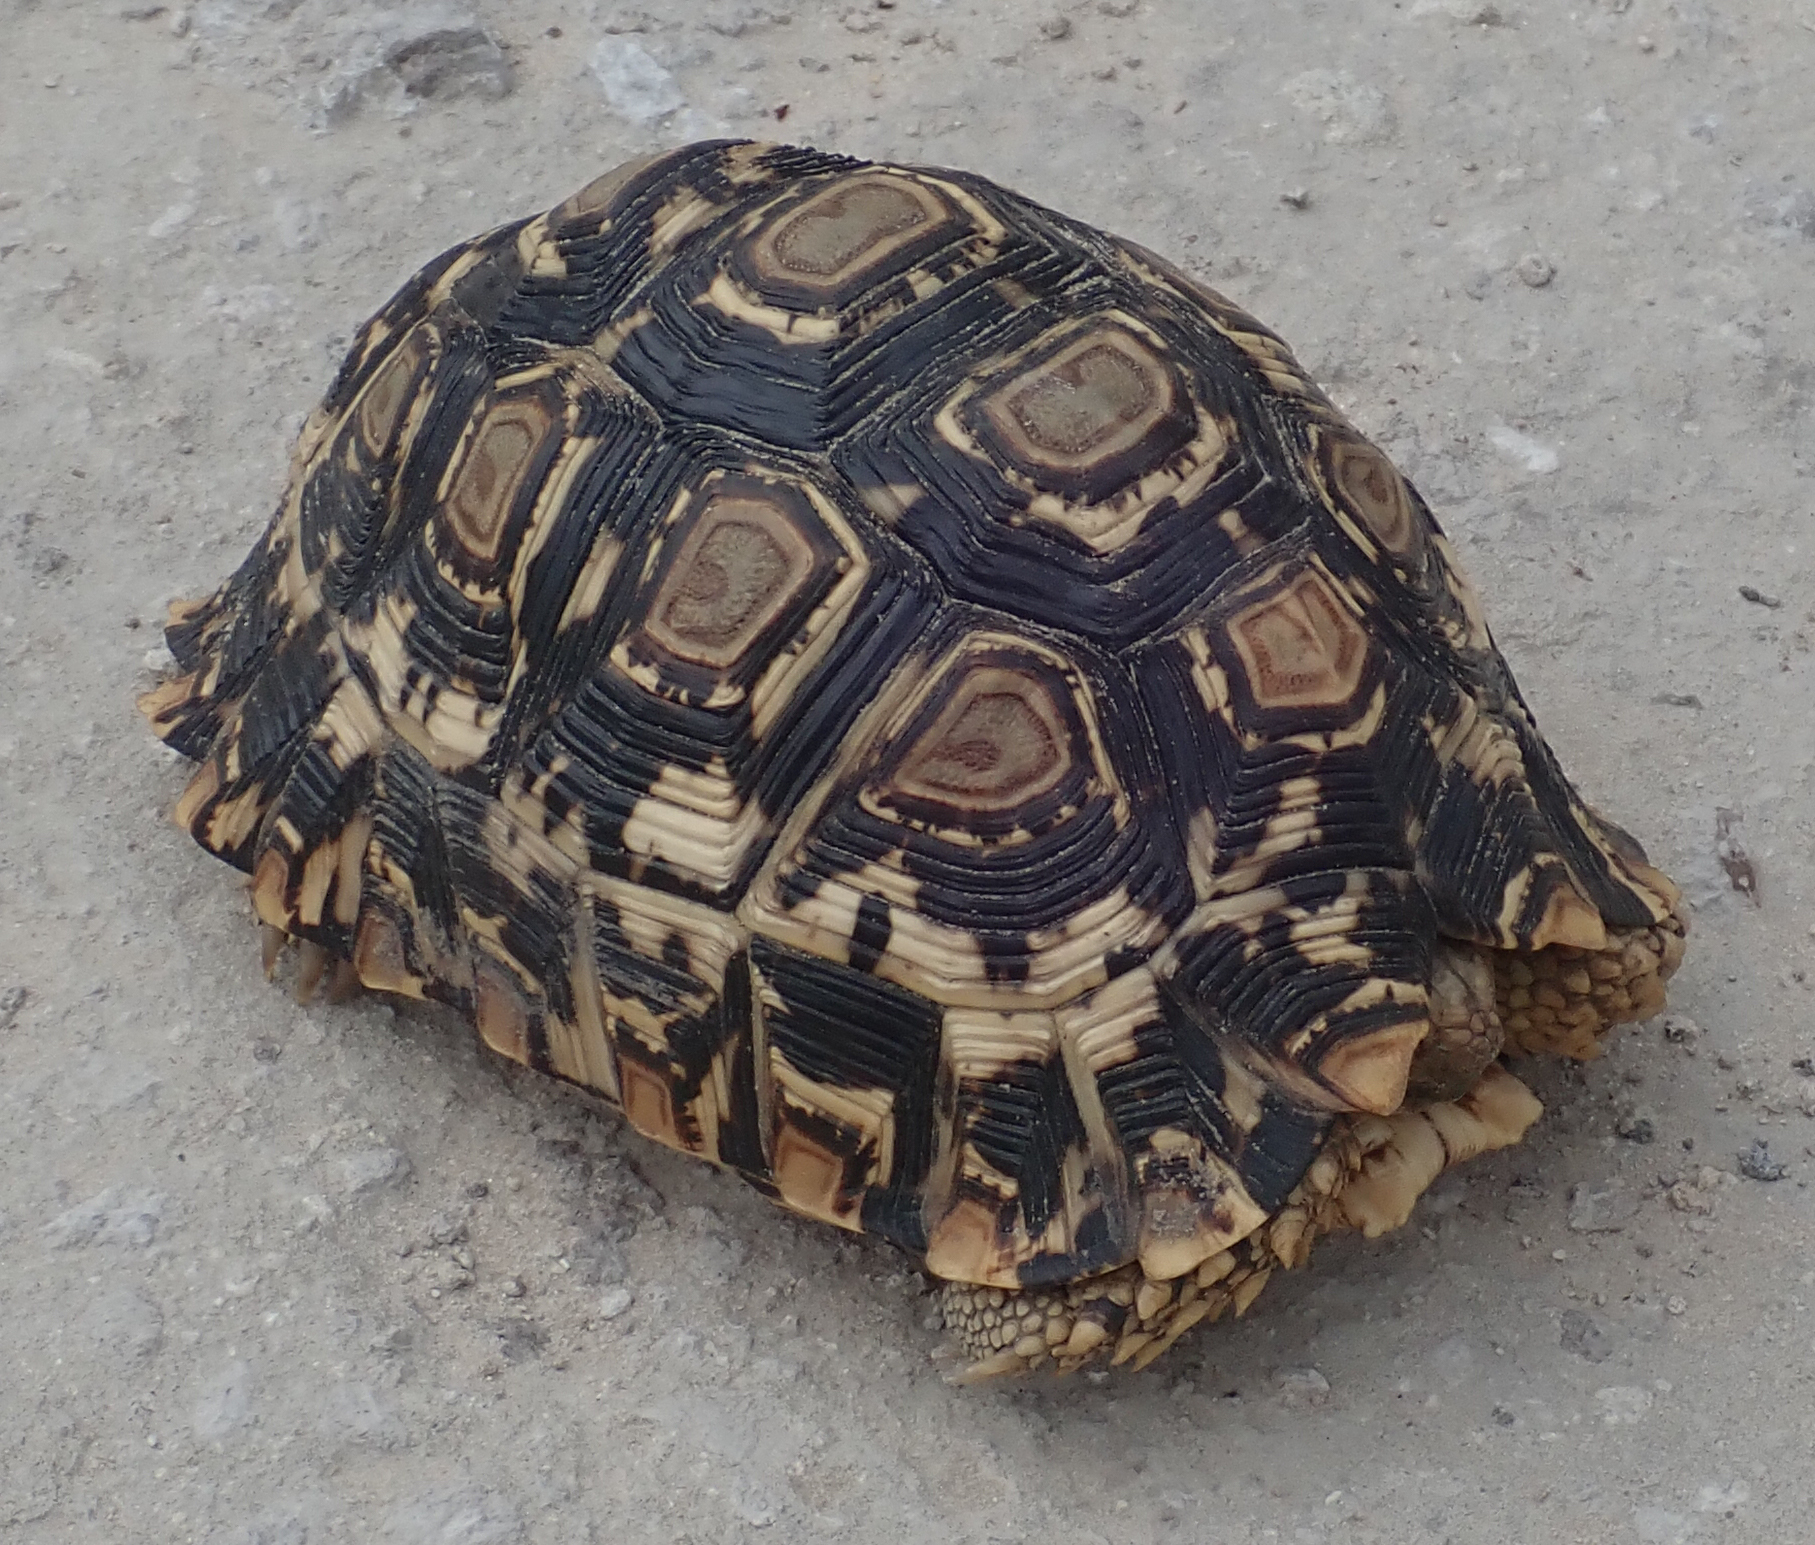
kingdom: Animalia
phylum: Chordata
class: Testudines
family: Testudinidae
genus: Stigmochelys
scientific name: Stigmochelys pardalis
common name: Leopard tortoise
